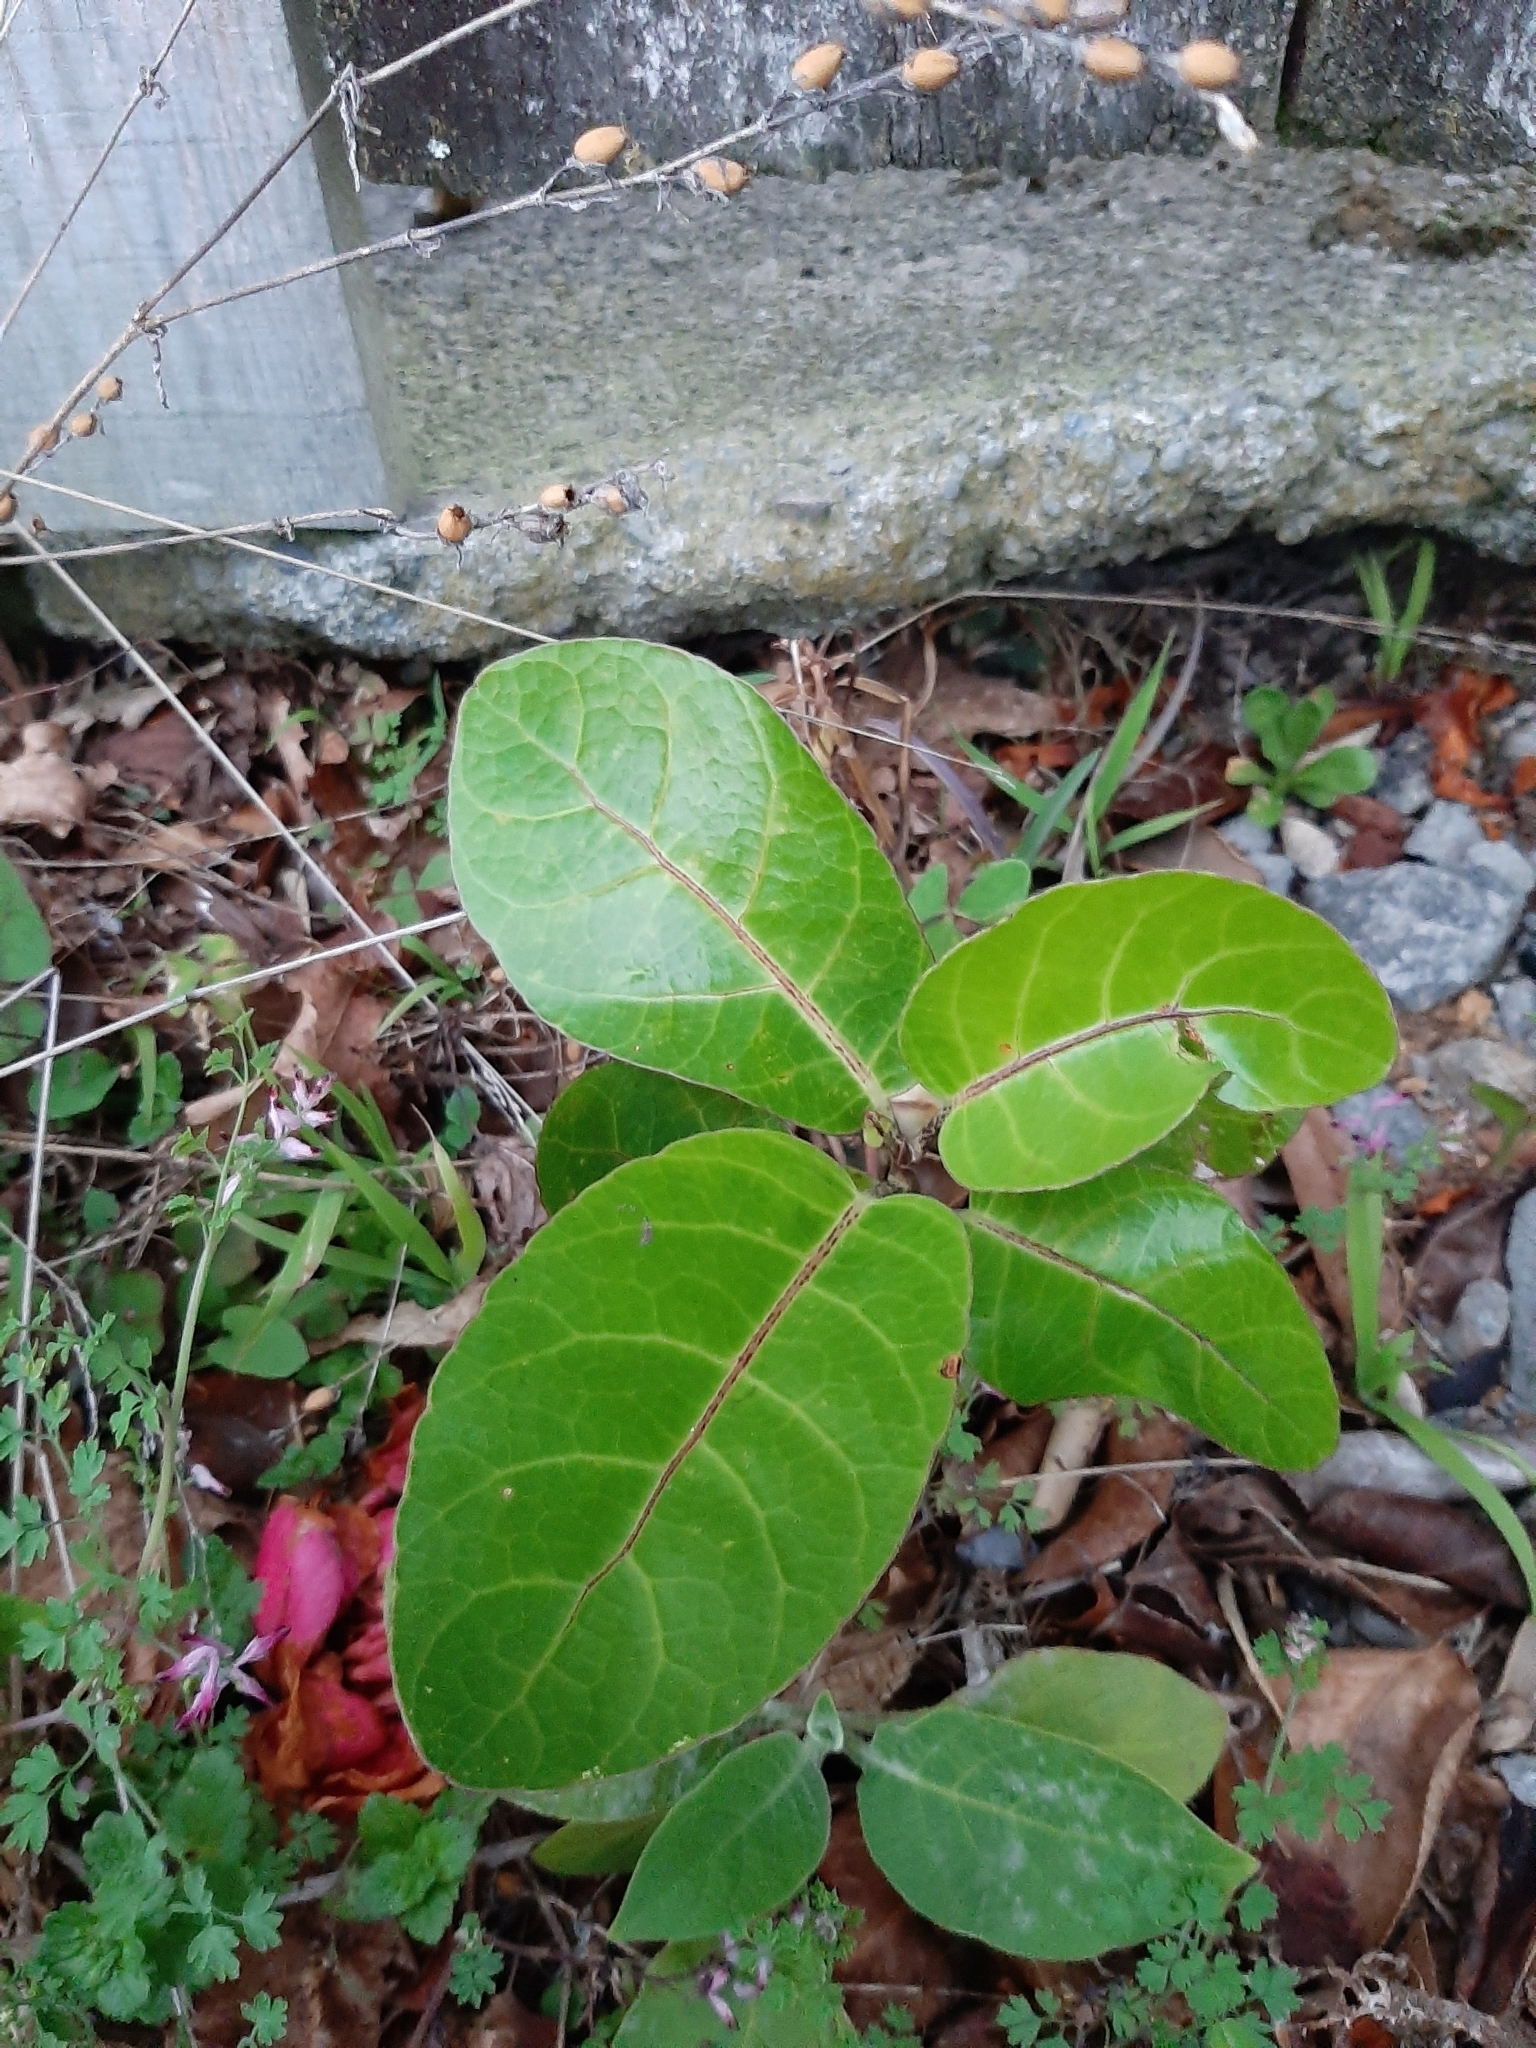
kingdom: Plantae
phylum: Tracheophyta
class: Magnoliopsida
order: Apiales
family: Araliaceae
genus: Meryta
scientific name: Meryta sinclairii
